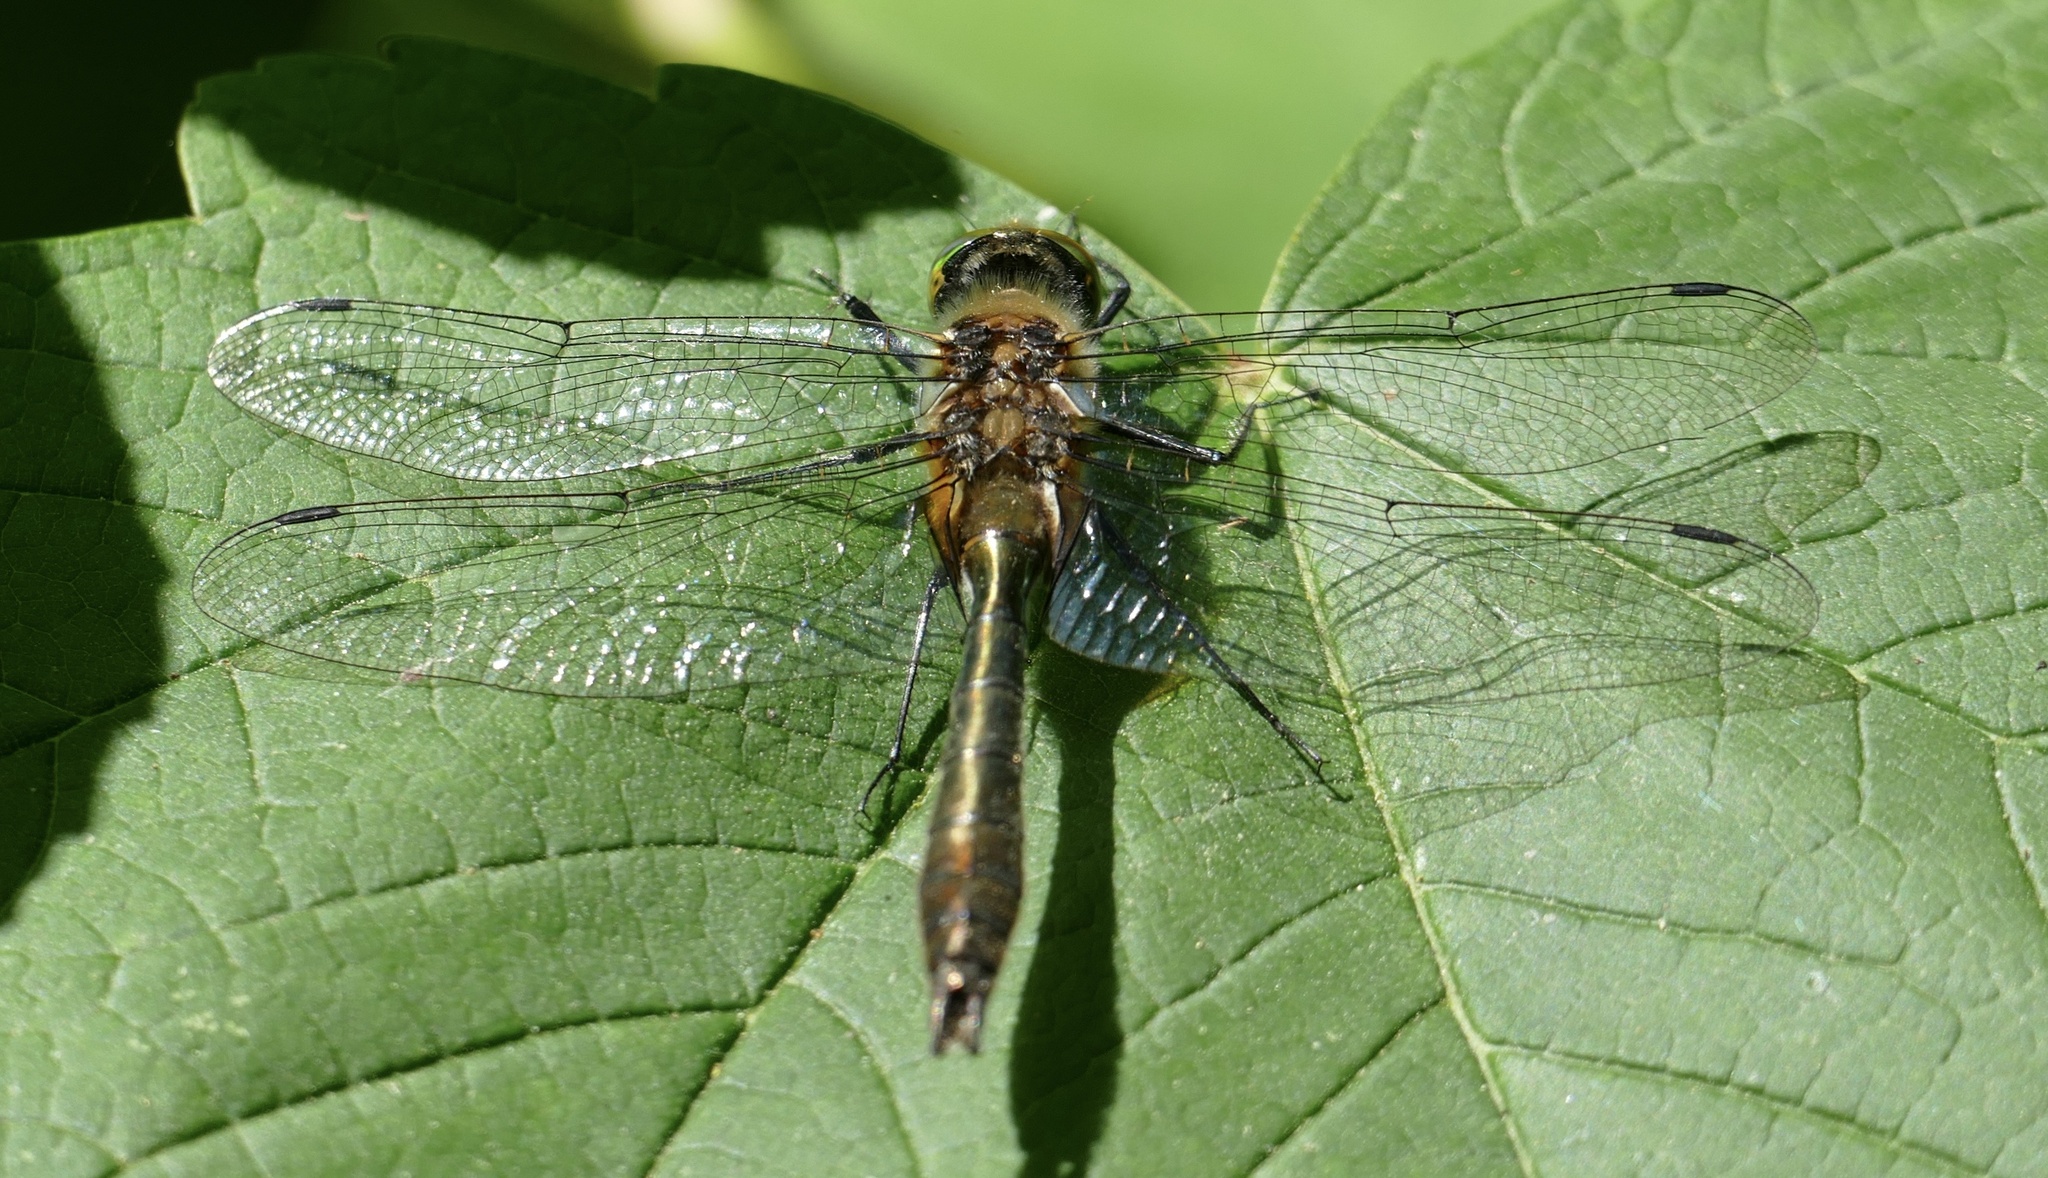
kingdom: Animalia
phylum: Arthropoda
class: Insecta
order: Odonata
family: Corduliidae
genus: Cordulia
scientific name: Cordulia aenea
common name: Downy emerald
